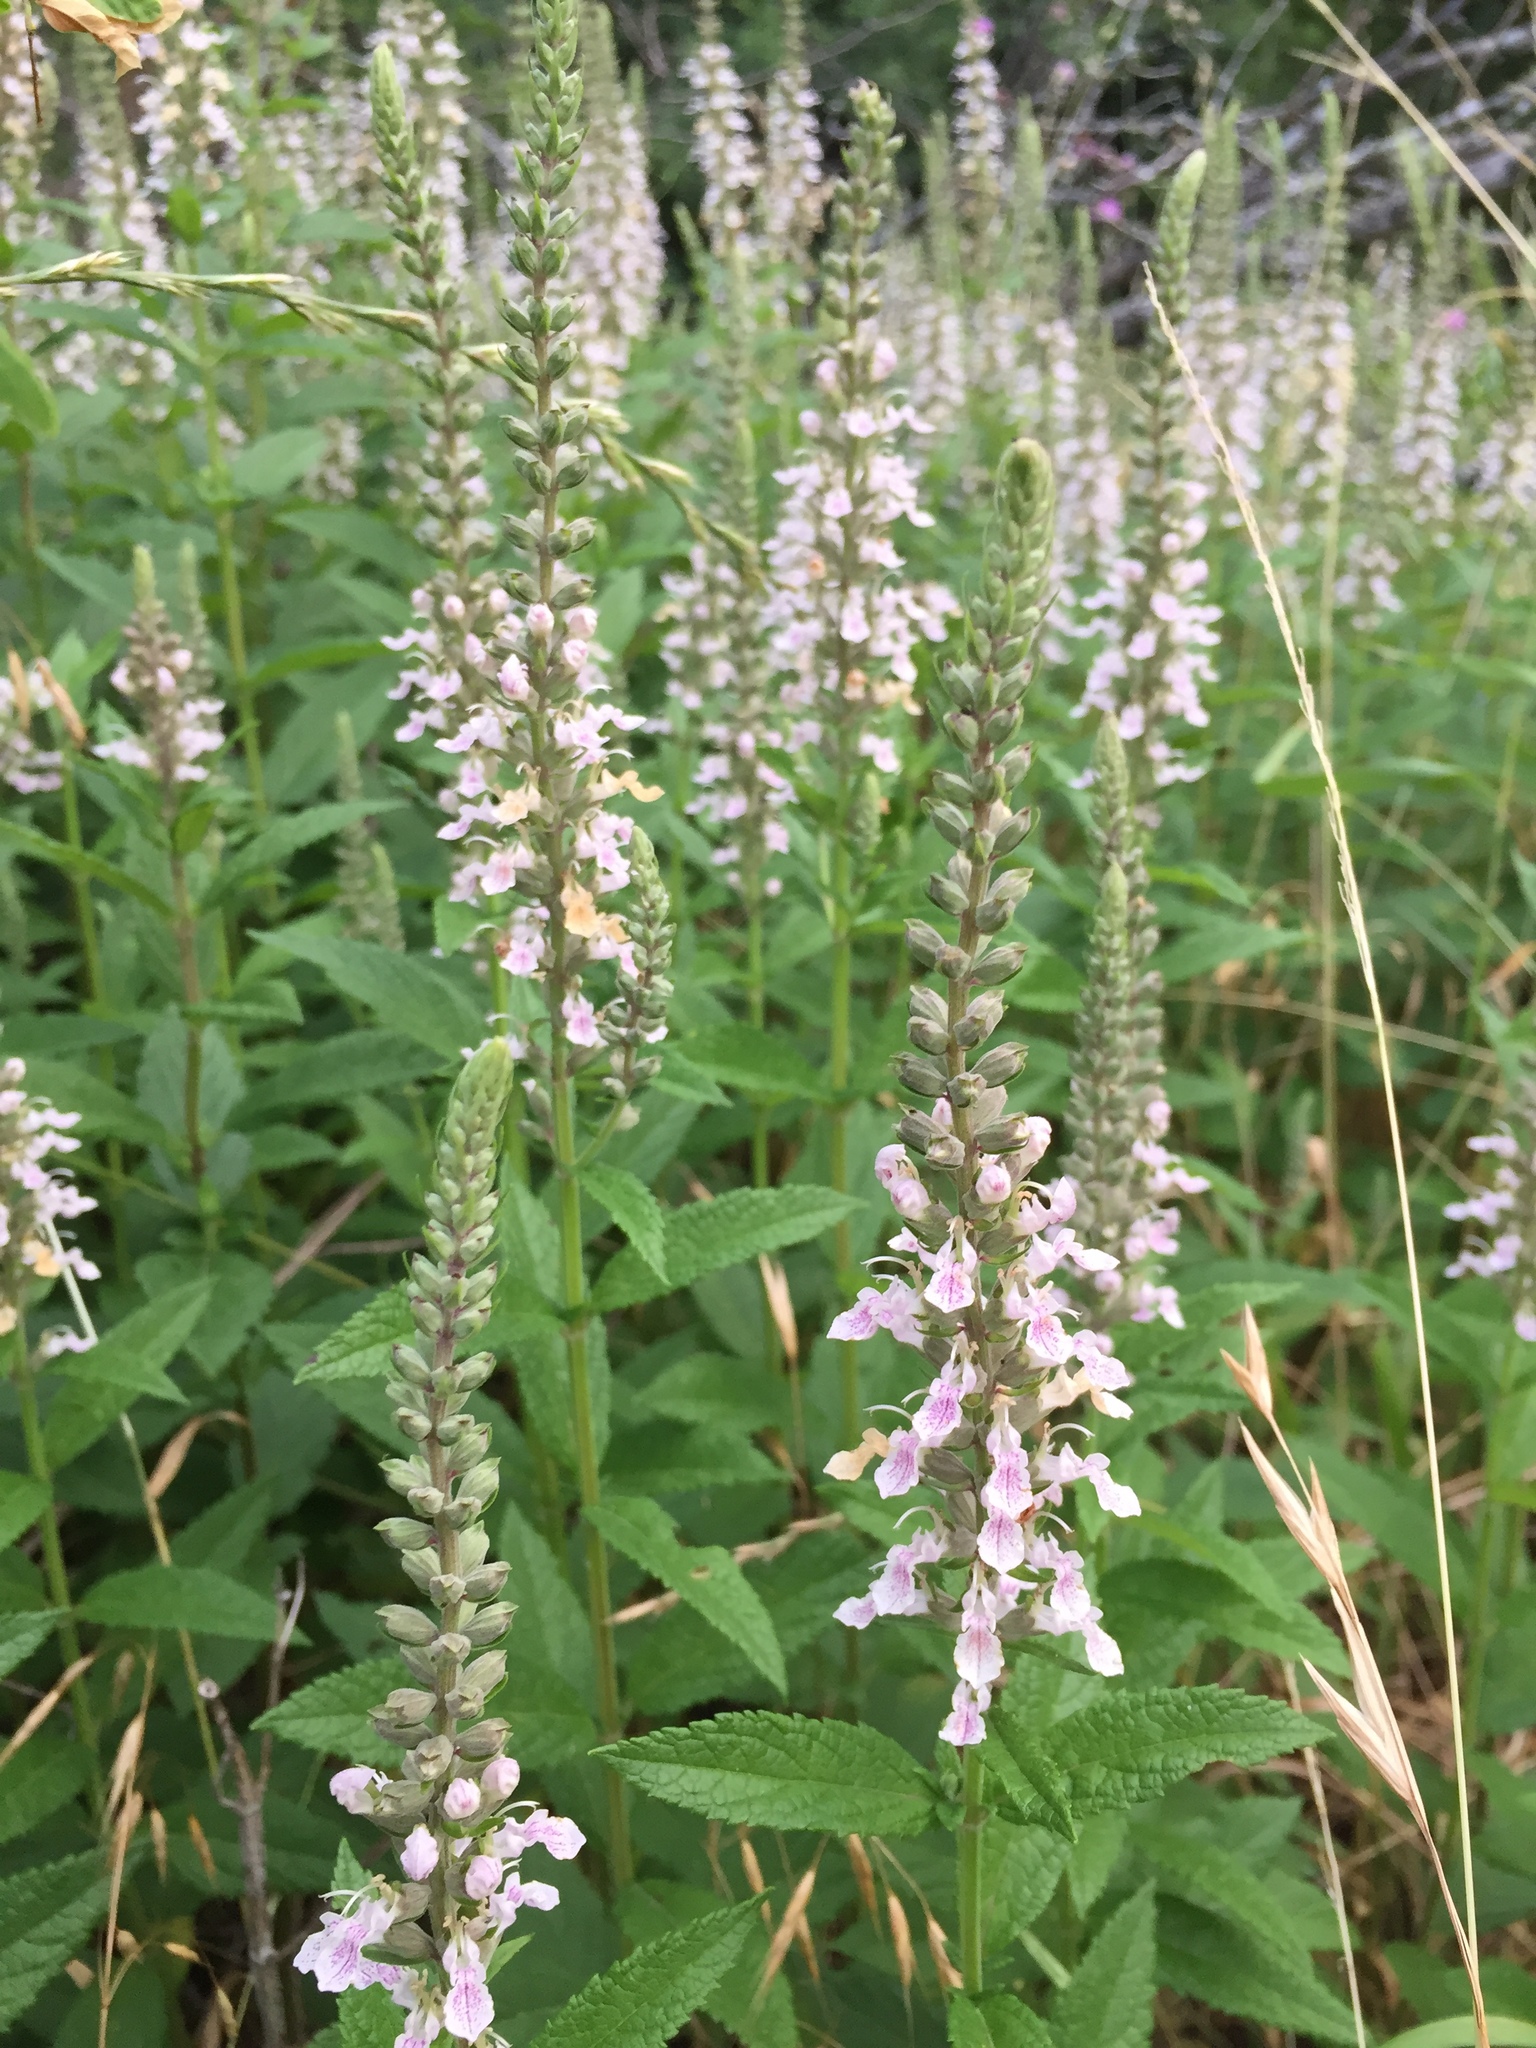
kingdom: Plantae
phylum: Tracheophyta
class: Magnoliopsida
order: Lamiales
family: Lamiaceae
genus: Teucrium
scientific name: Teucrium canadense
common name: American germander
